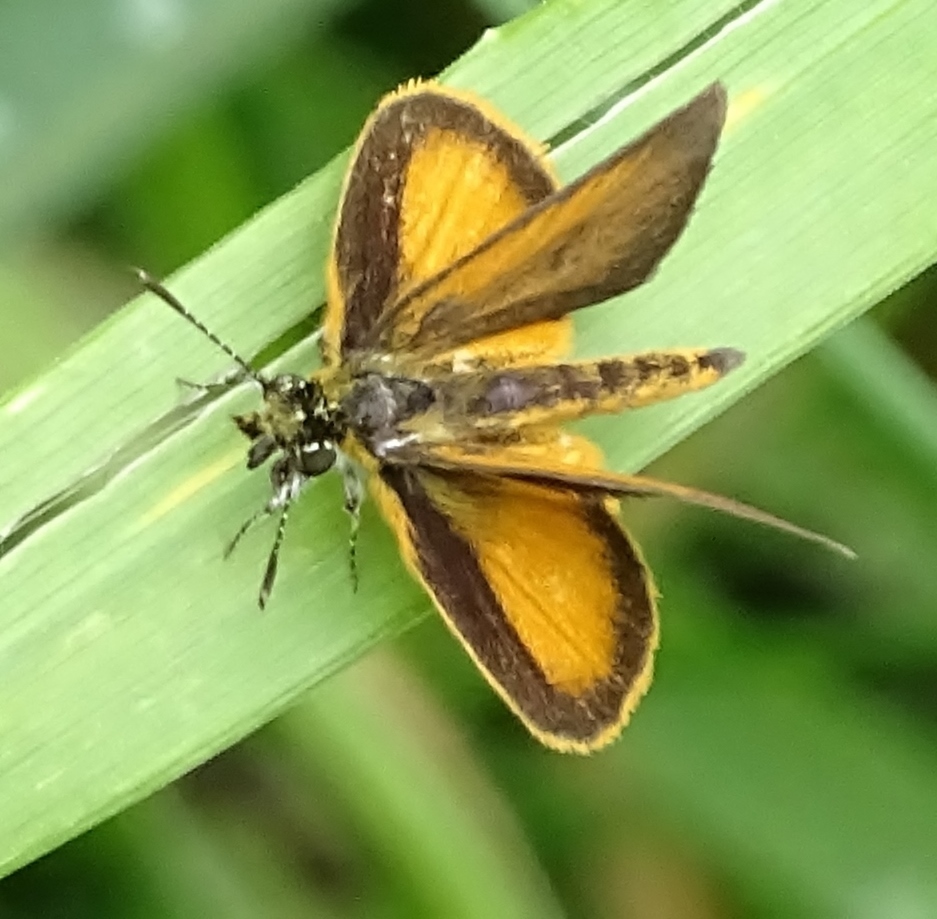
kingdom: Animalia
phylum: Arthropoda
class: Insecta
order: Lepidoptera
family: Hesperiidae
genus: Ancyloxypha
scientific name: Ancyloxypha numitor
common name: Least skipper
